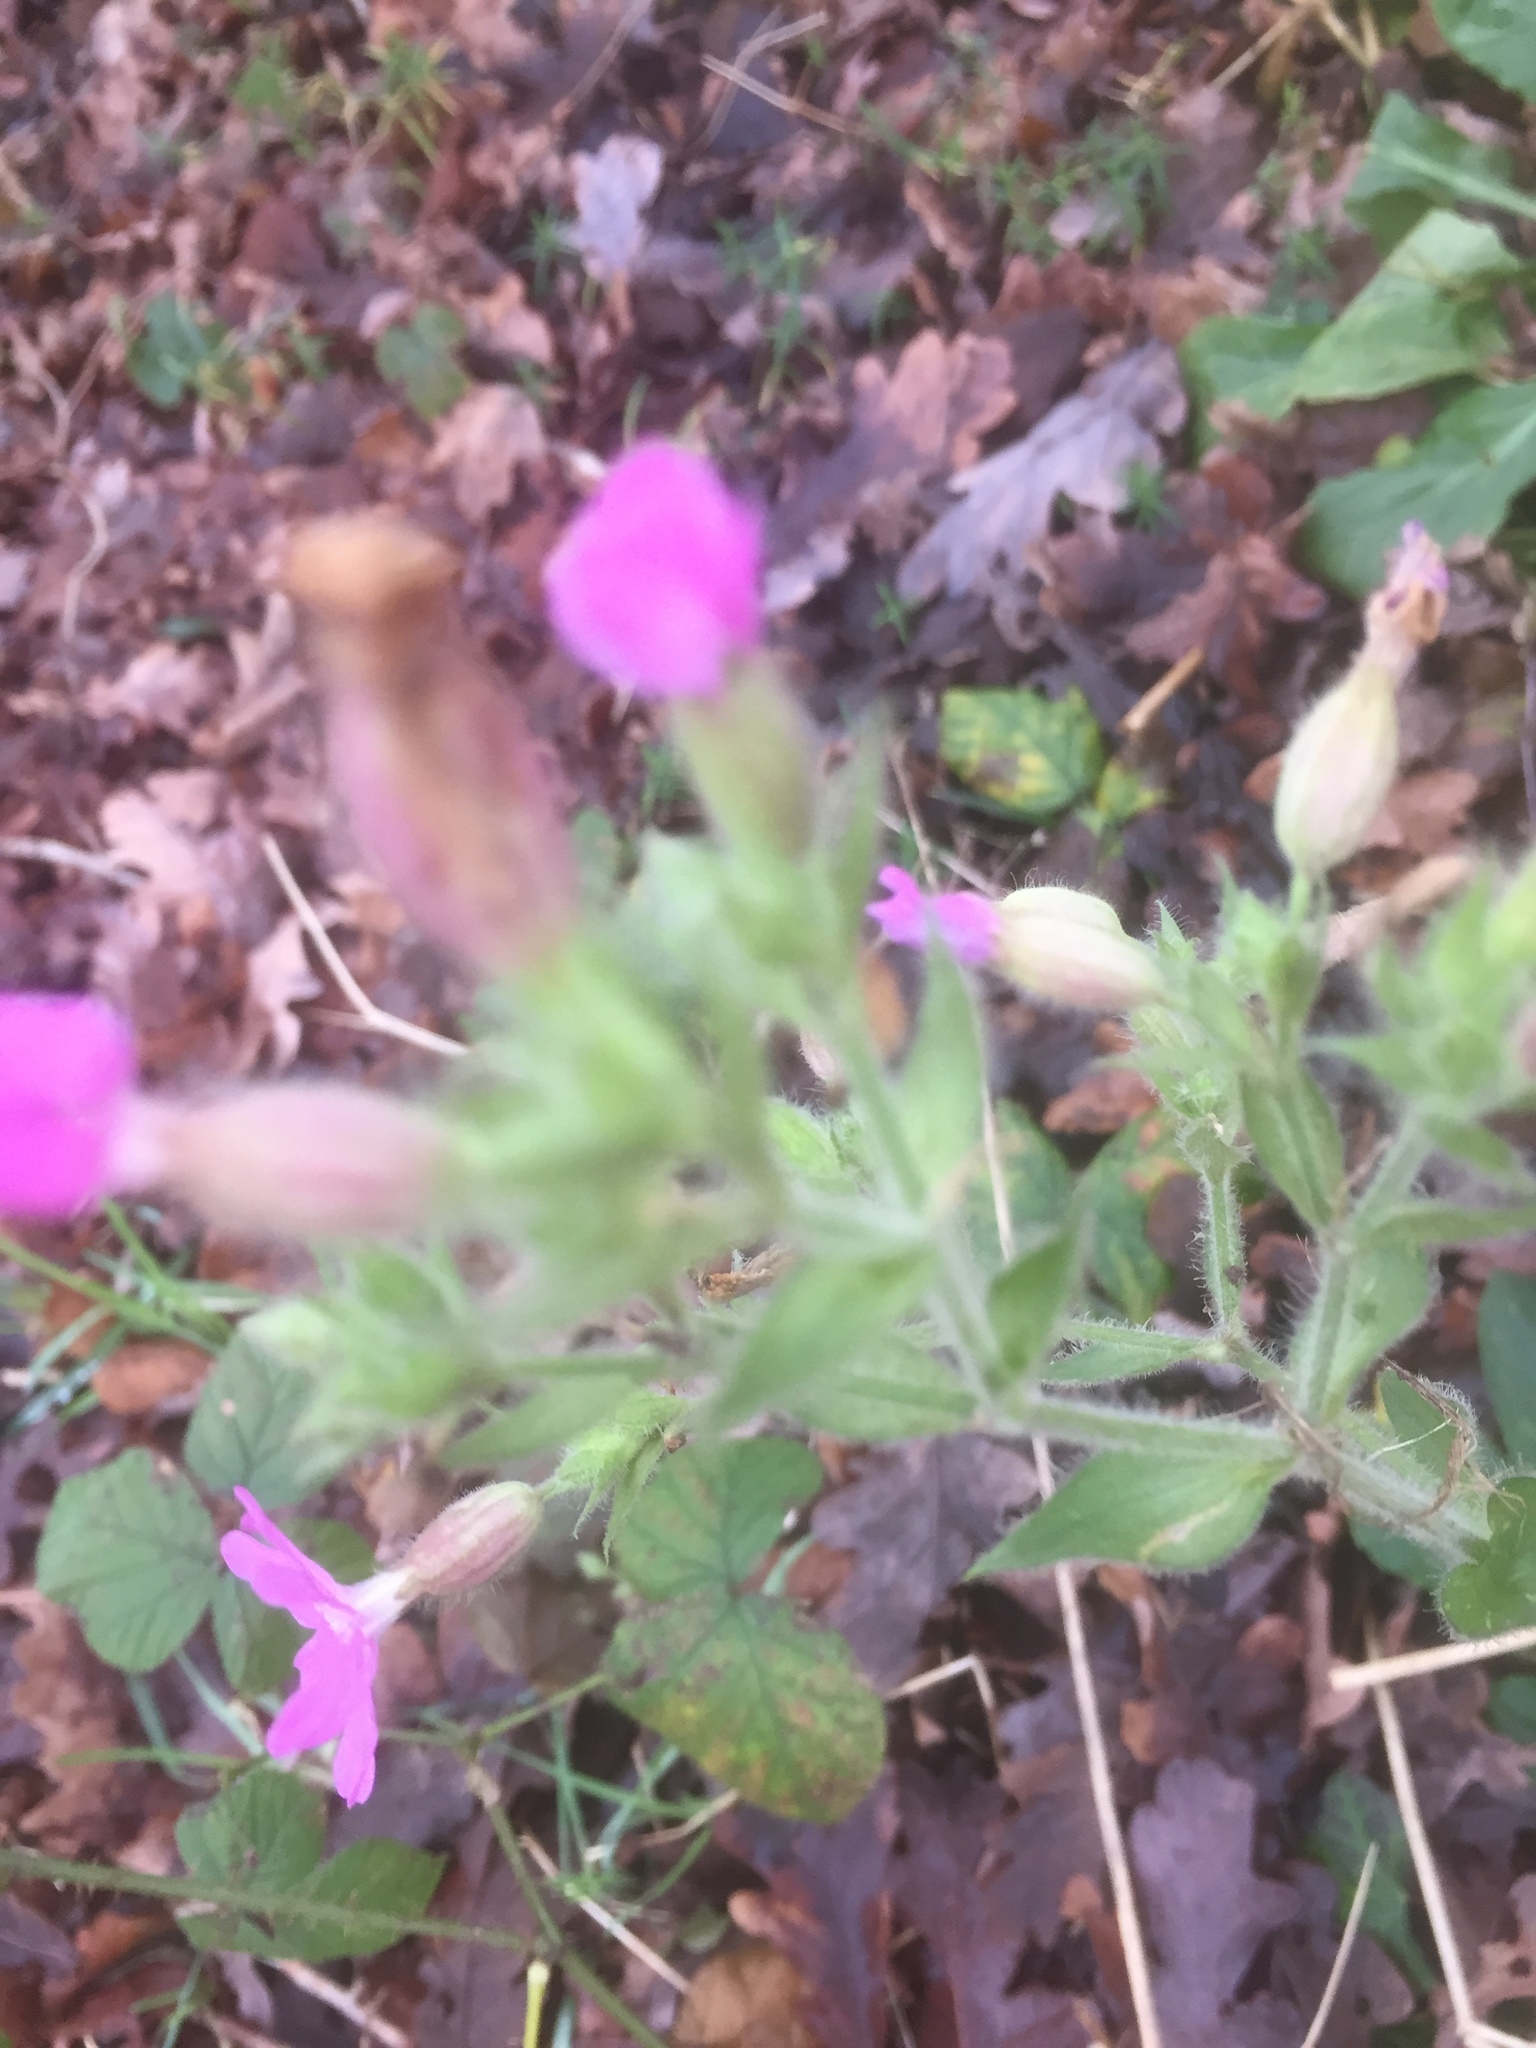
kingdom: Plantae
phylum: Tracheophyta
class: Magnoliopsida
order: Caryophyllales
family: Caryophyllaceae
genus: Silene
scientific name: Silene dioica
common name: Red campion
